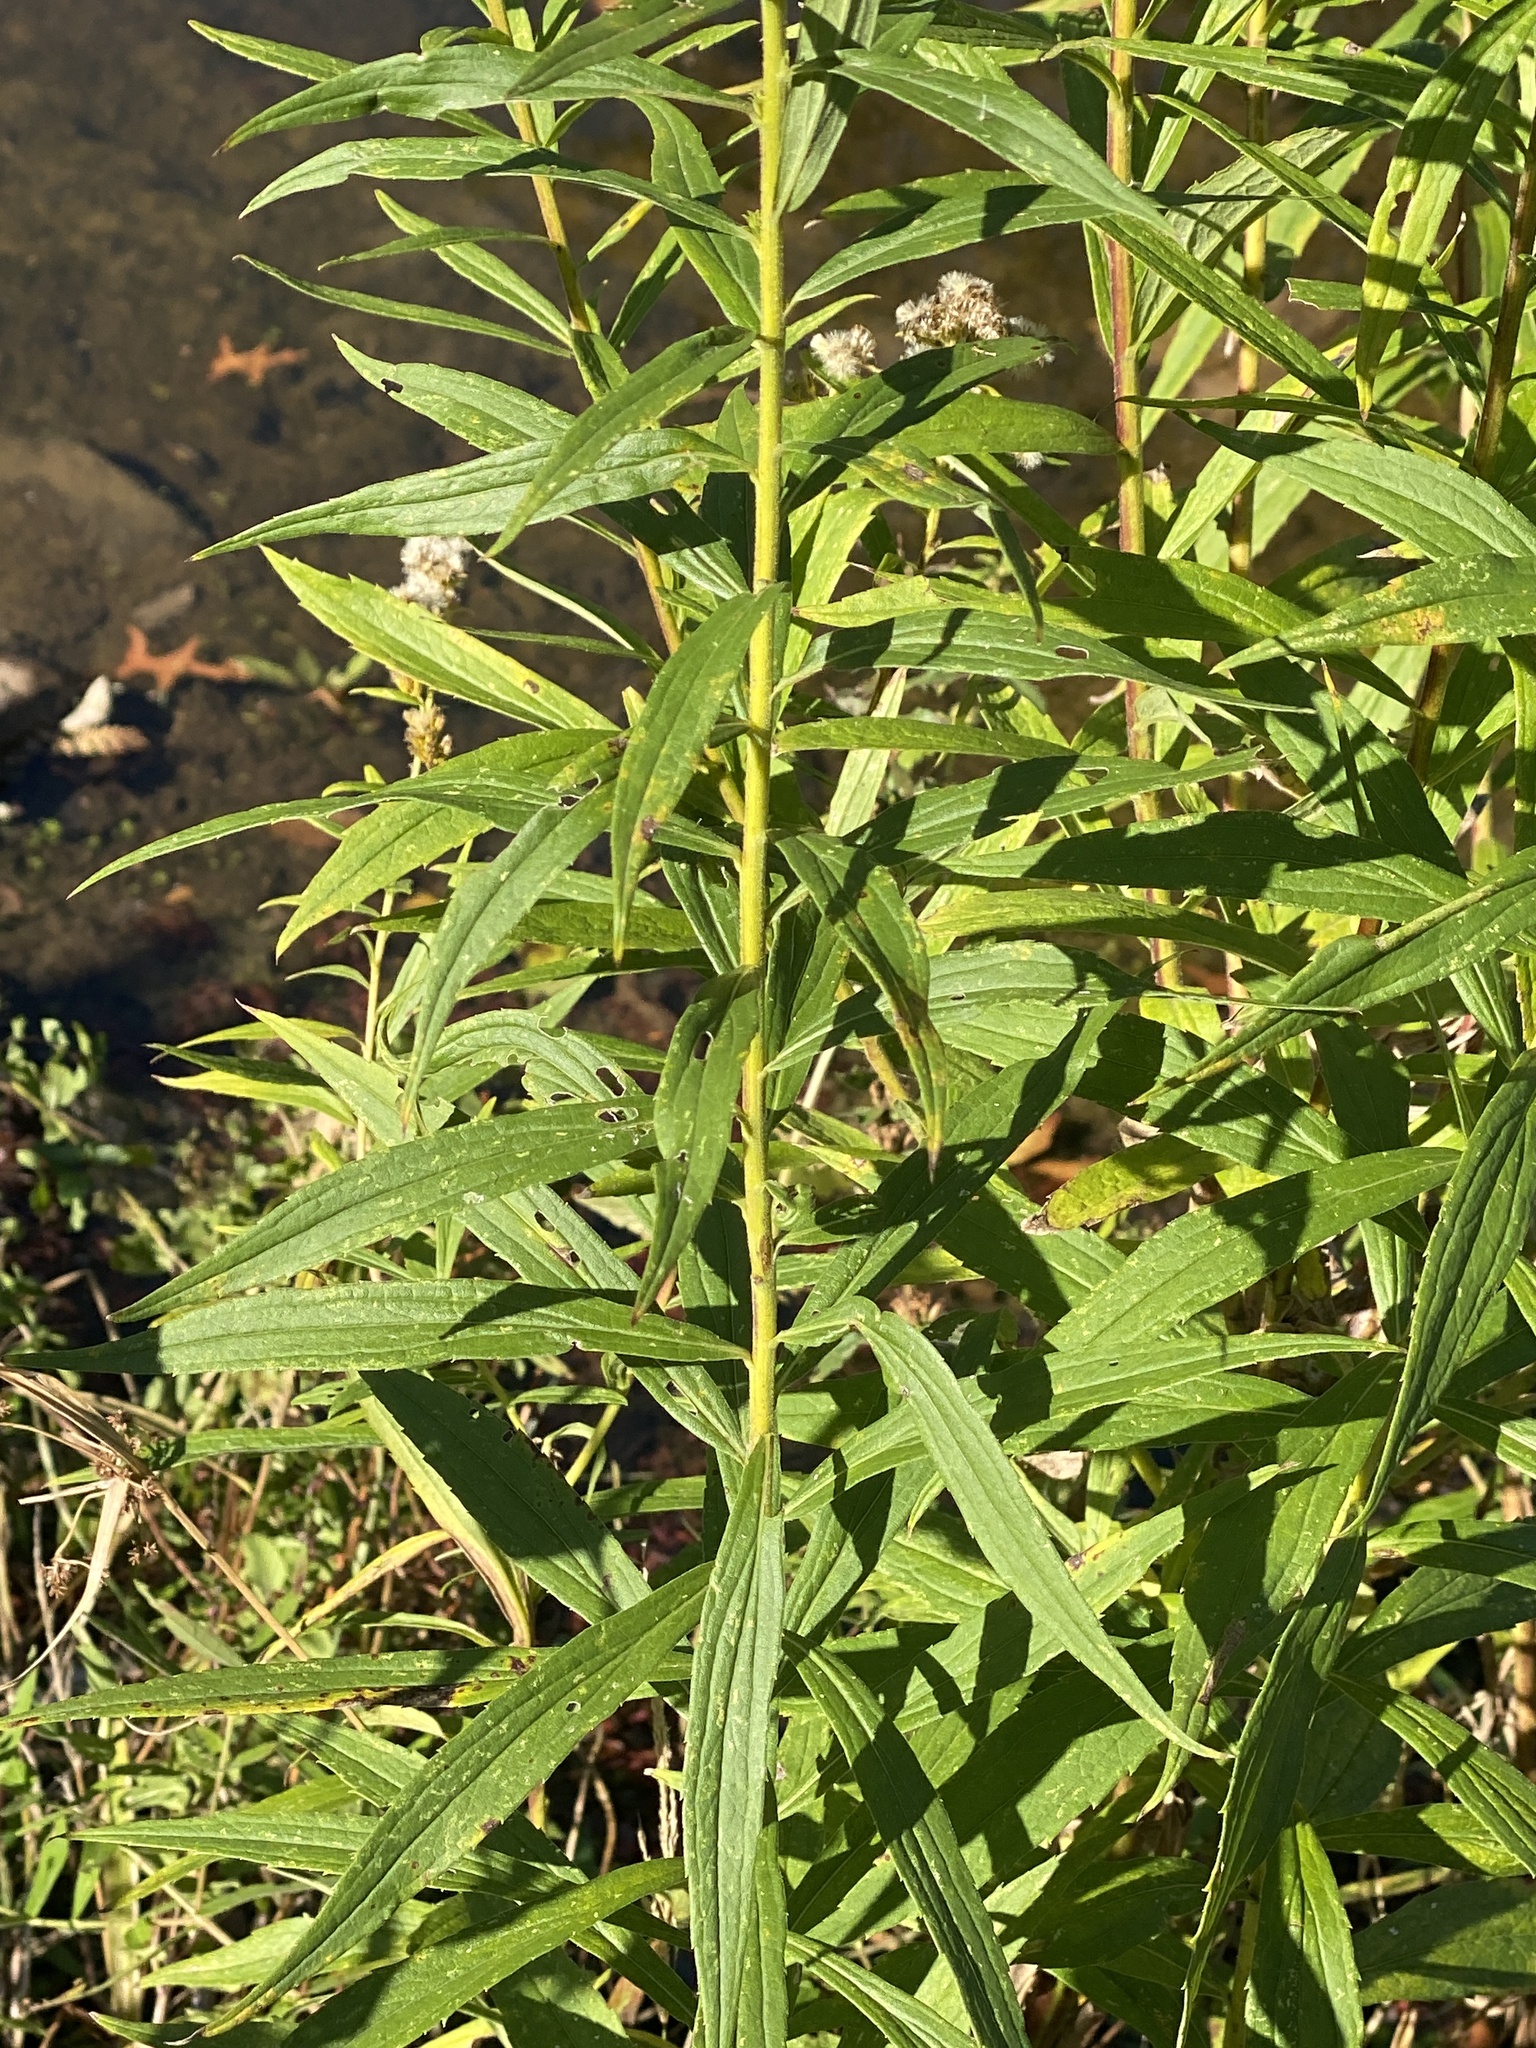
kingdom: Plantae
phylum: Tracheophyta
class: Magnoliopsida
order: Asterales
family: Asteraceae
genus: Solidago
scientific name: Solidago altissima
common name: Late goldenrod
